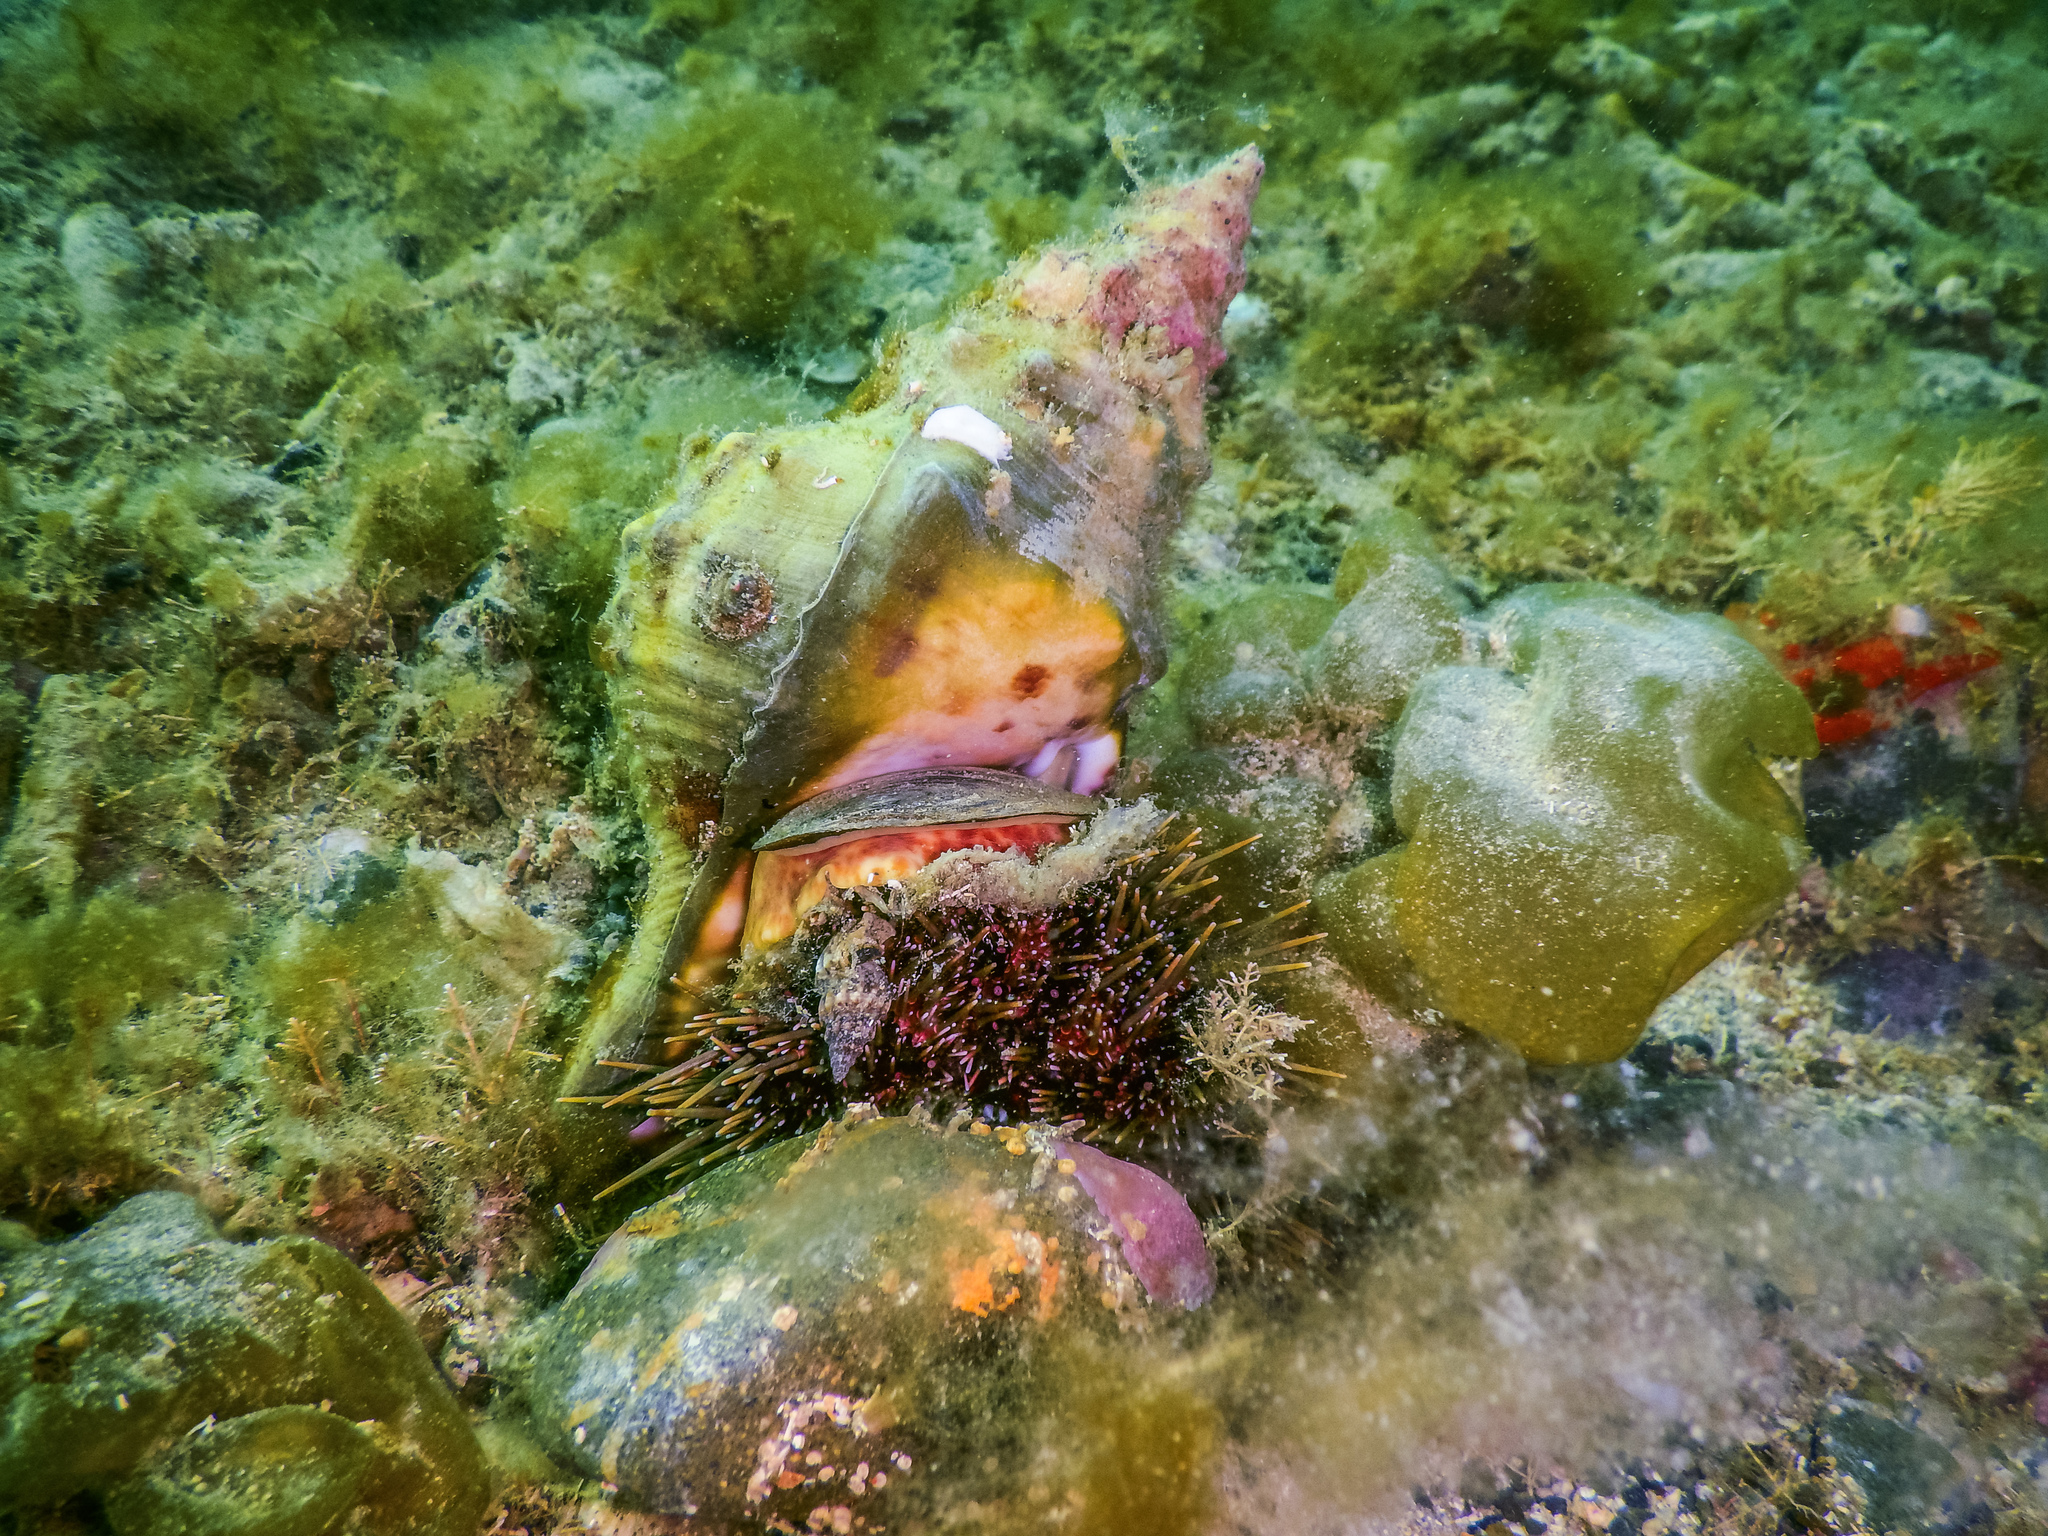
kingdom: Animalia
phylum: Mollusca
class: Gastropoda
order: Littorinimorpha
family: Charoniidae
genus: Charonia
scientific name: Charonia lampas
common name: Knobbed triton
